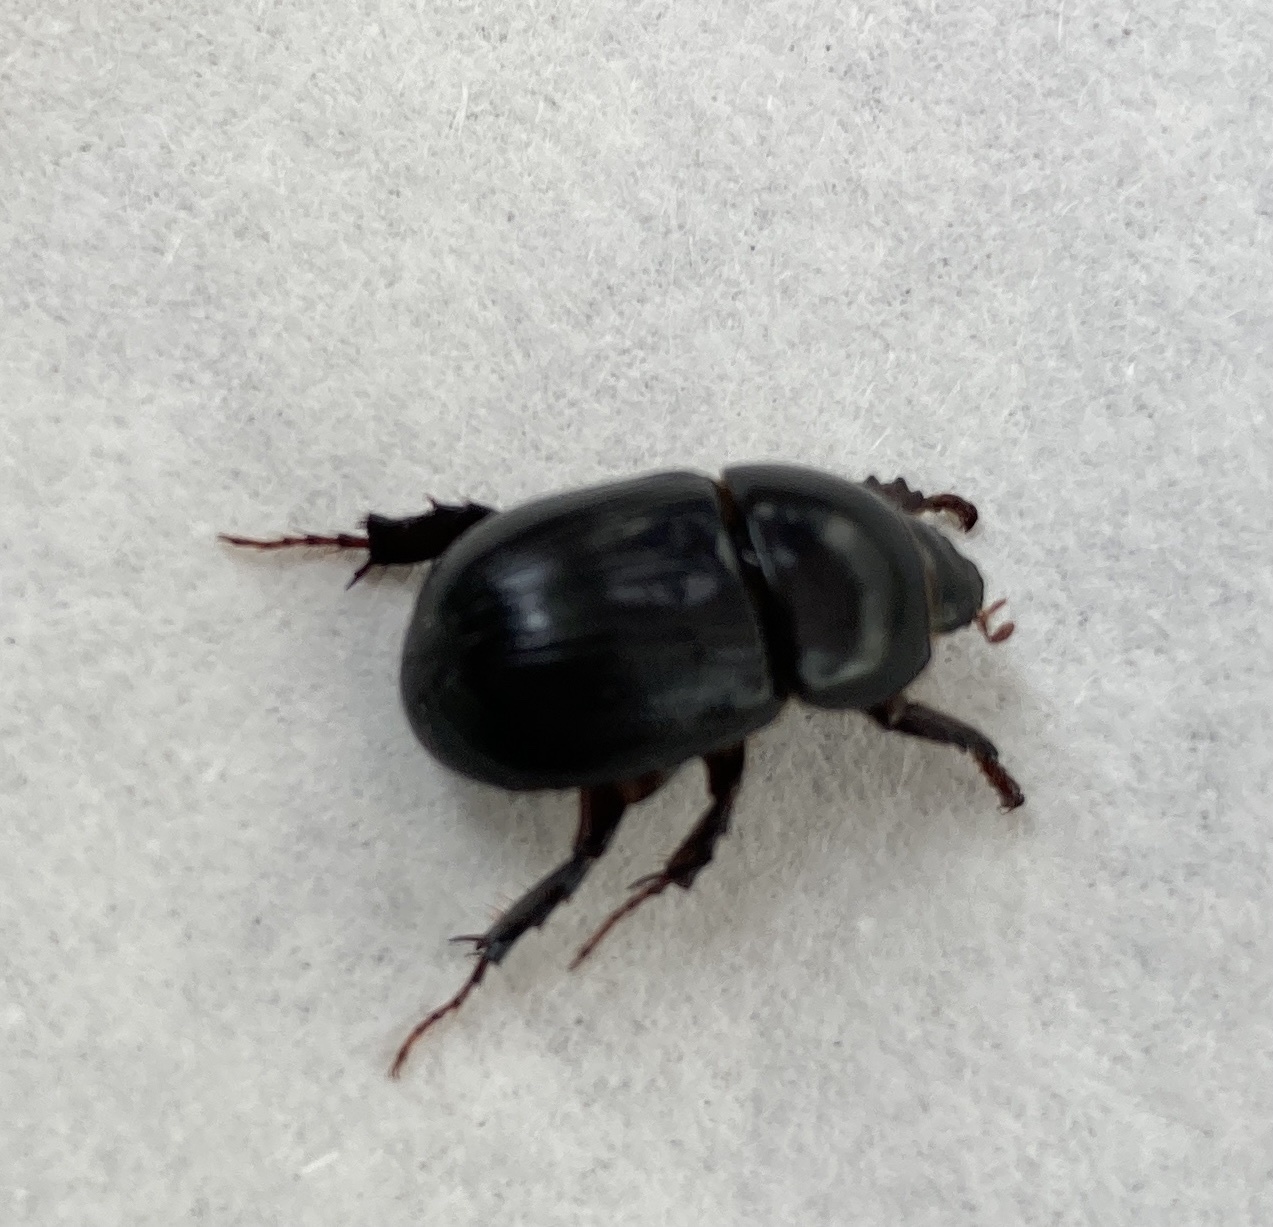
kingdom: Animalia
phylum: Arthropoda
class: Insecta
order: Coleoptera
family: Scarabaeidae
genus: Heteronychus
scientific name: Heteronychus arator
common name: African black beetle
